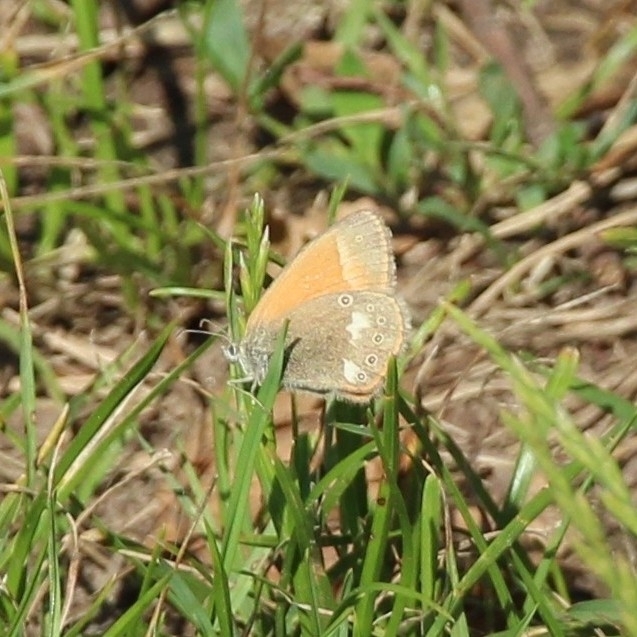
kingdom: Animalia
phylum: Arthropoda
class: Insecta
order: Lepidoptera
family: Nymphalidae
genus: Coenonympha
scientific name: Coenonympha iphis
